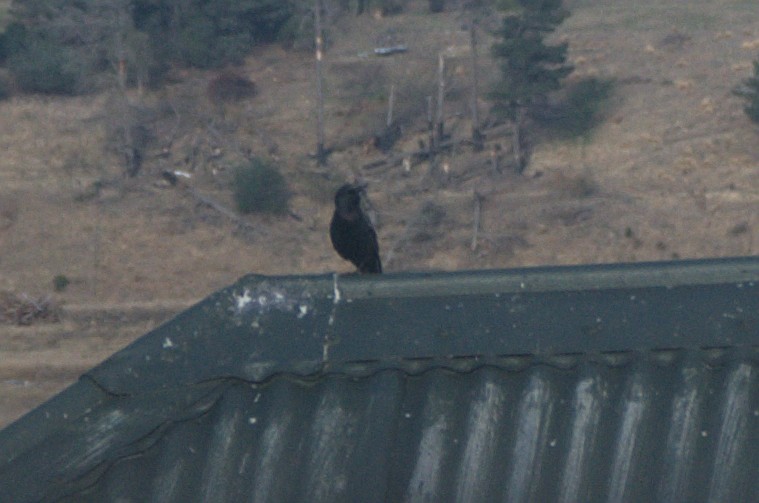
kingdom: Animalia
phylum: Chordata
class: Aves
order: Passeriformes
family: Sturnidae
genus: Sturnus
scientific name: Sturnus vulgaris
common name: Common starling
